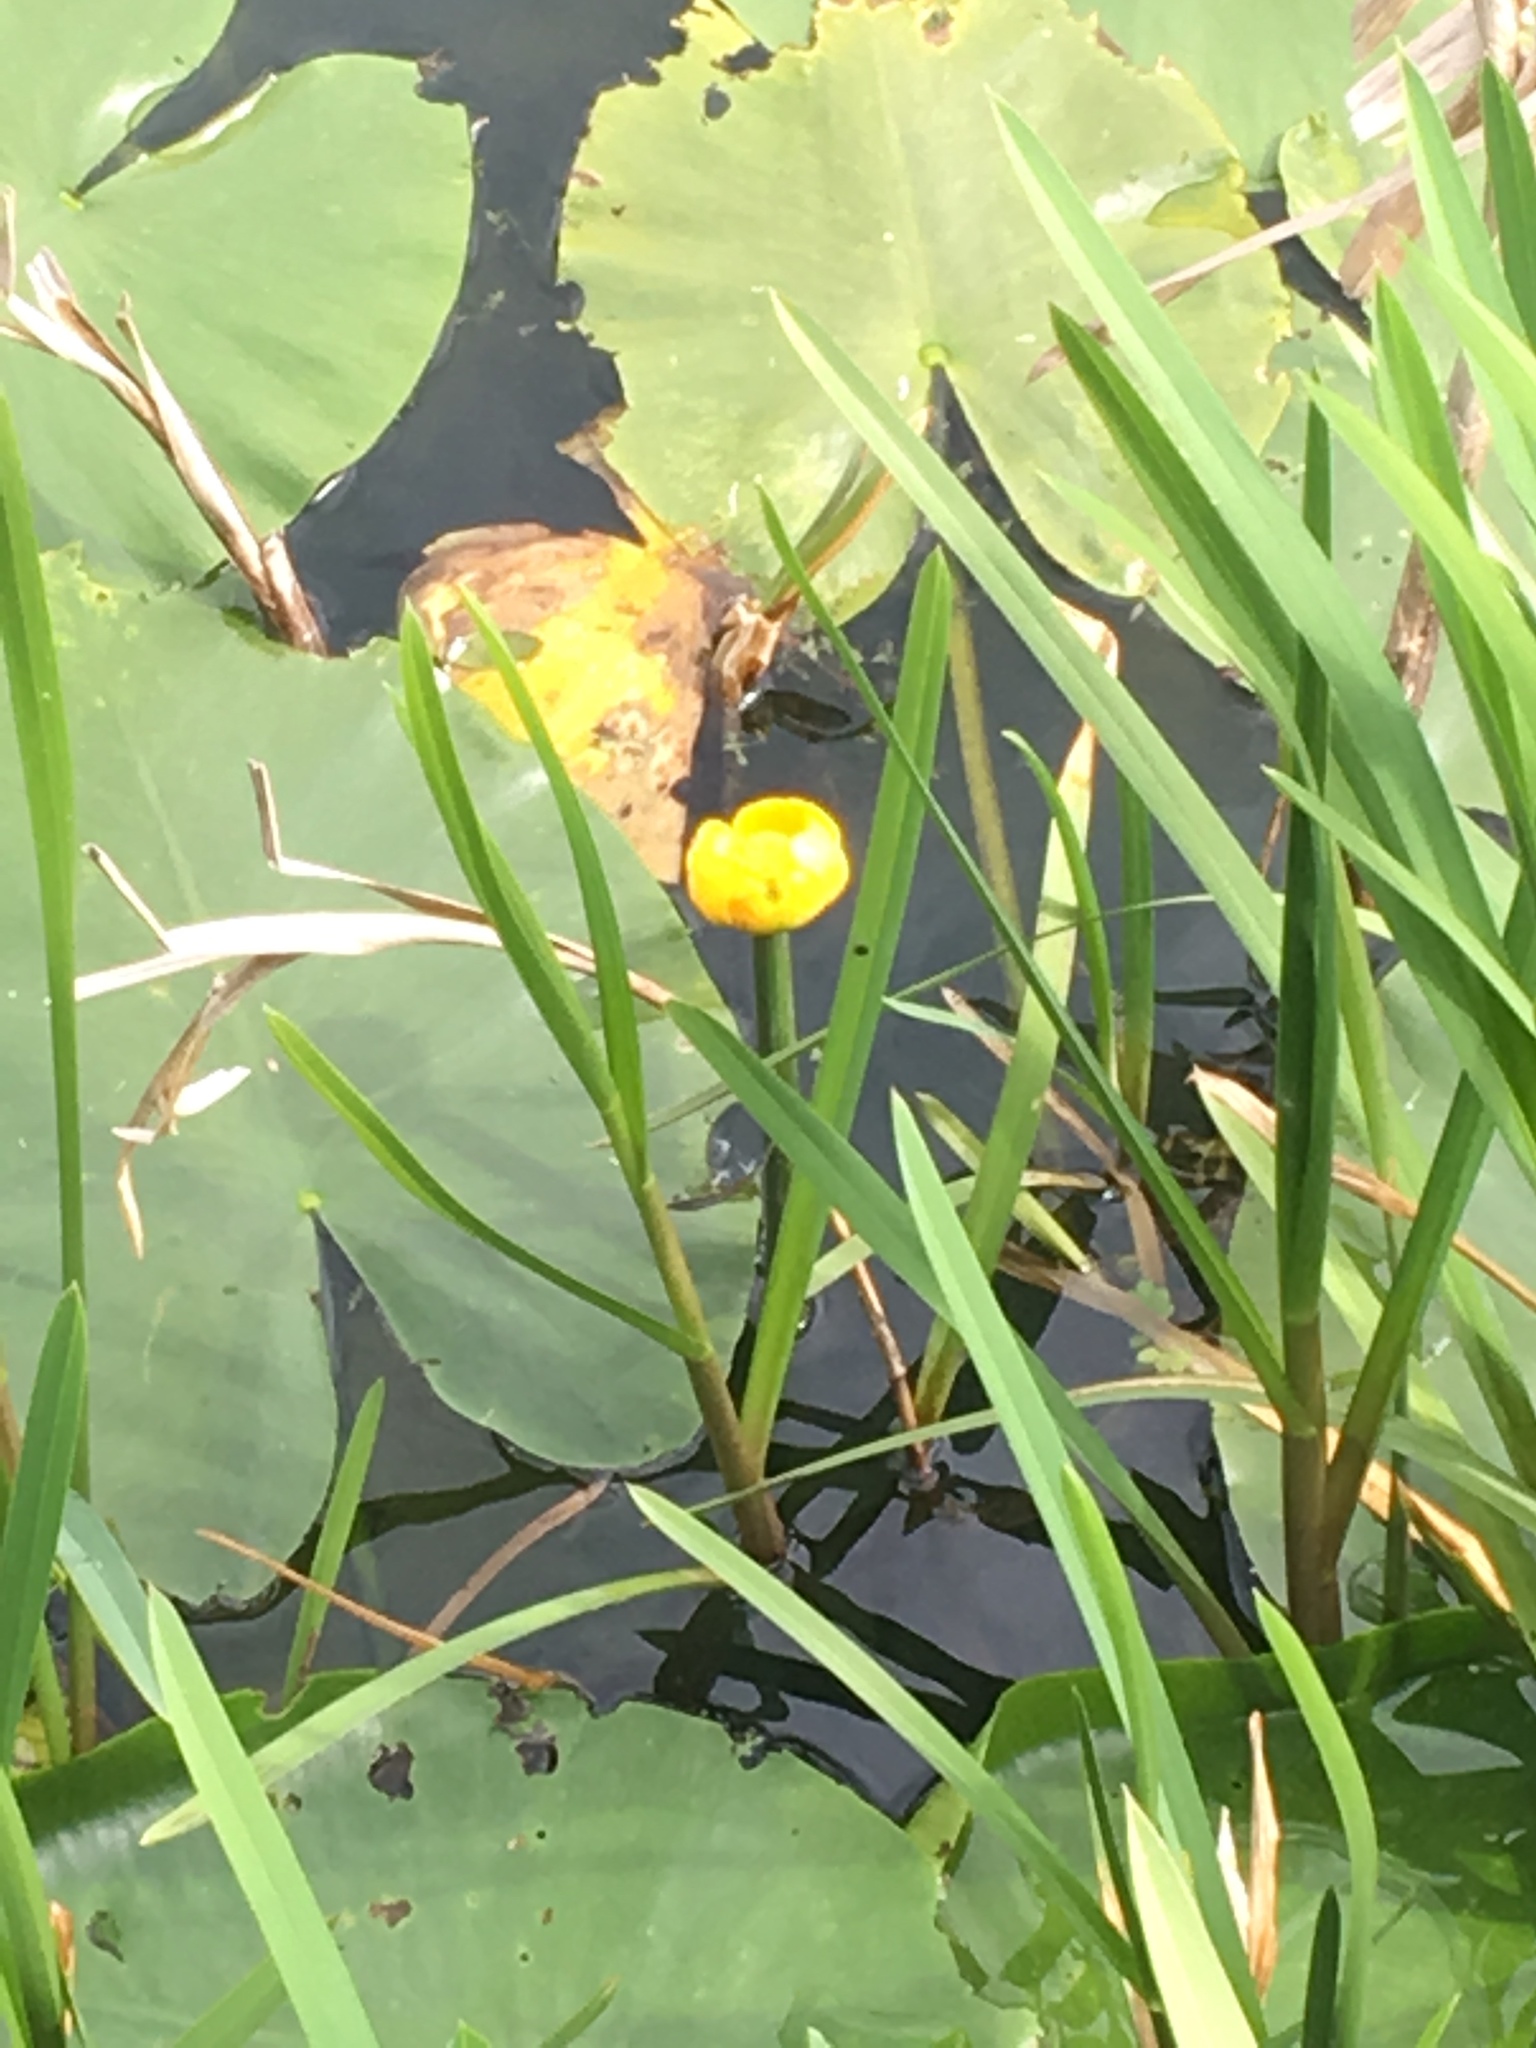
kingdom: Plantae
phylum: Tracheophyta
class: Magnoliopsida
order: Nymphaeales
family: Nymphaeaceae
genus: Nuphar
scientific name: Nuphar lutea
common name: Yellow water-lily
